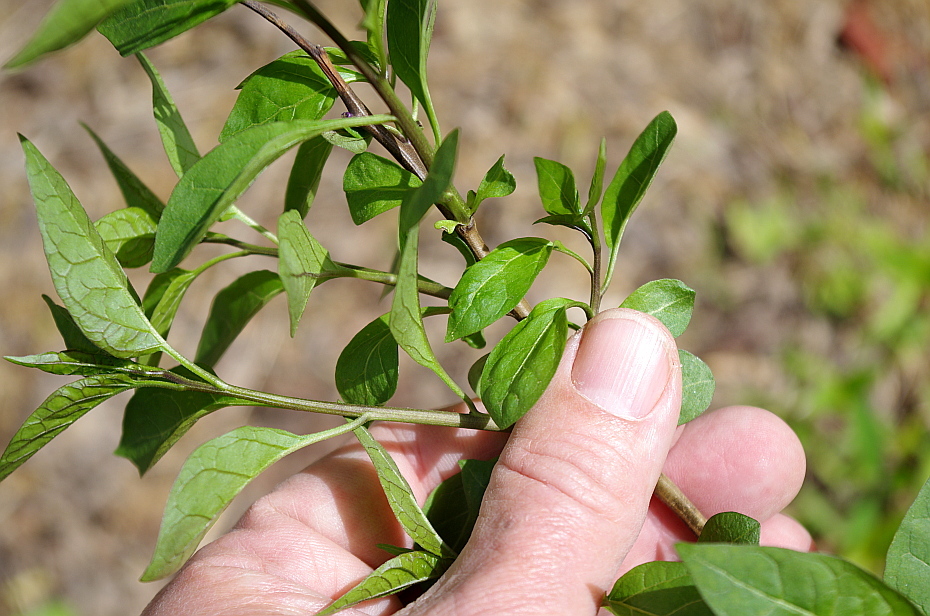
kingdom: Plantae
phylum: Tracheophyta
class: Magnoliopsida
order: Solanales
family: Solanaceae
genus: Solanum
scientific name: Solanum dulcamara
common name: Climbing nightshade
